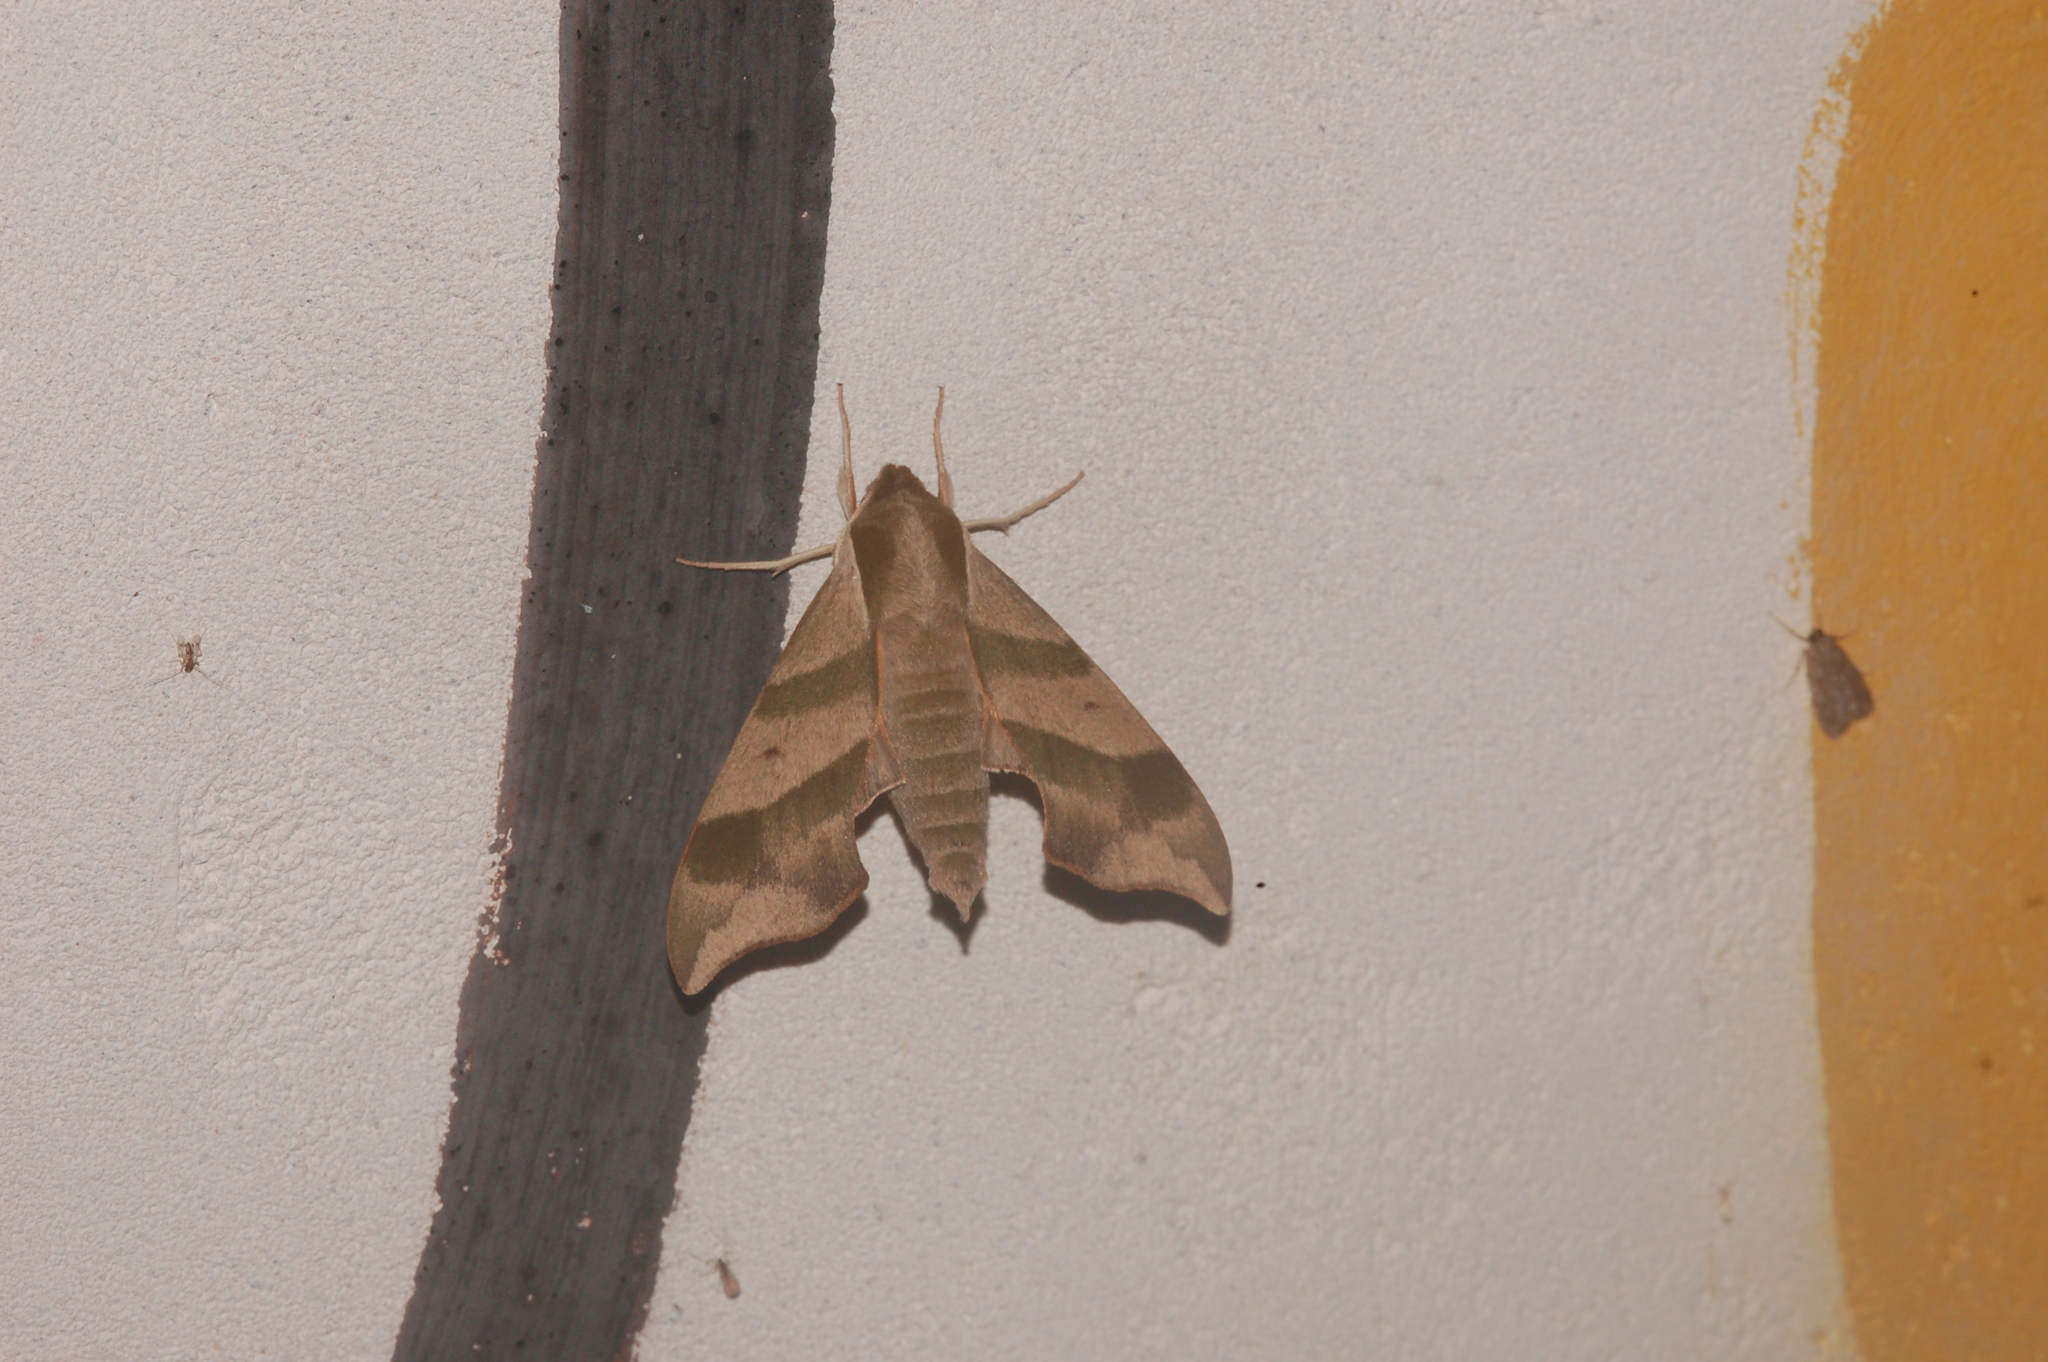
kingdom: Animalia
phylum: Arthropoda
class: Insecta
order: Lepidoptera
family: Sphingidae
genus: Darapsa
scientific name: Darapsa myron
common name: Hog sphinx
